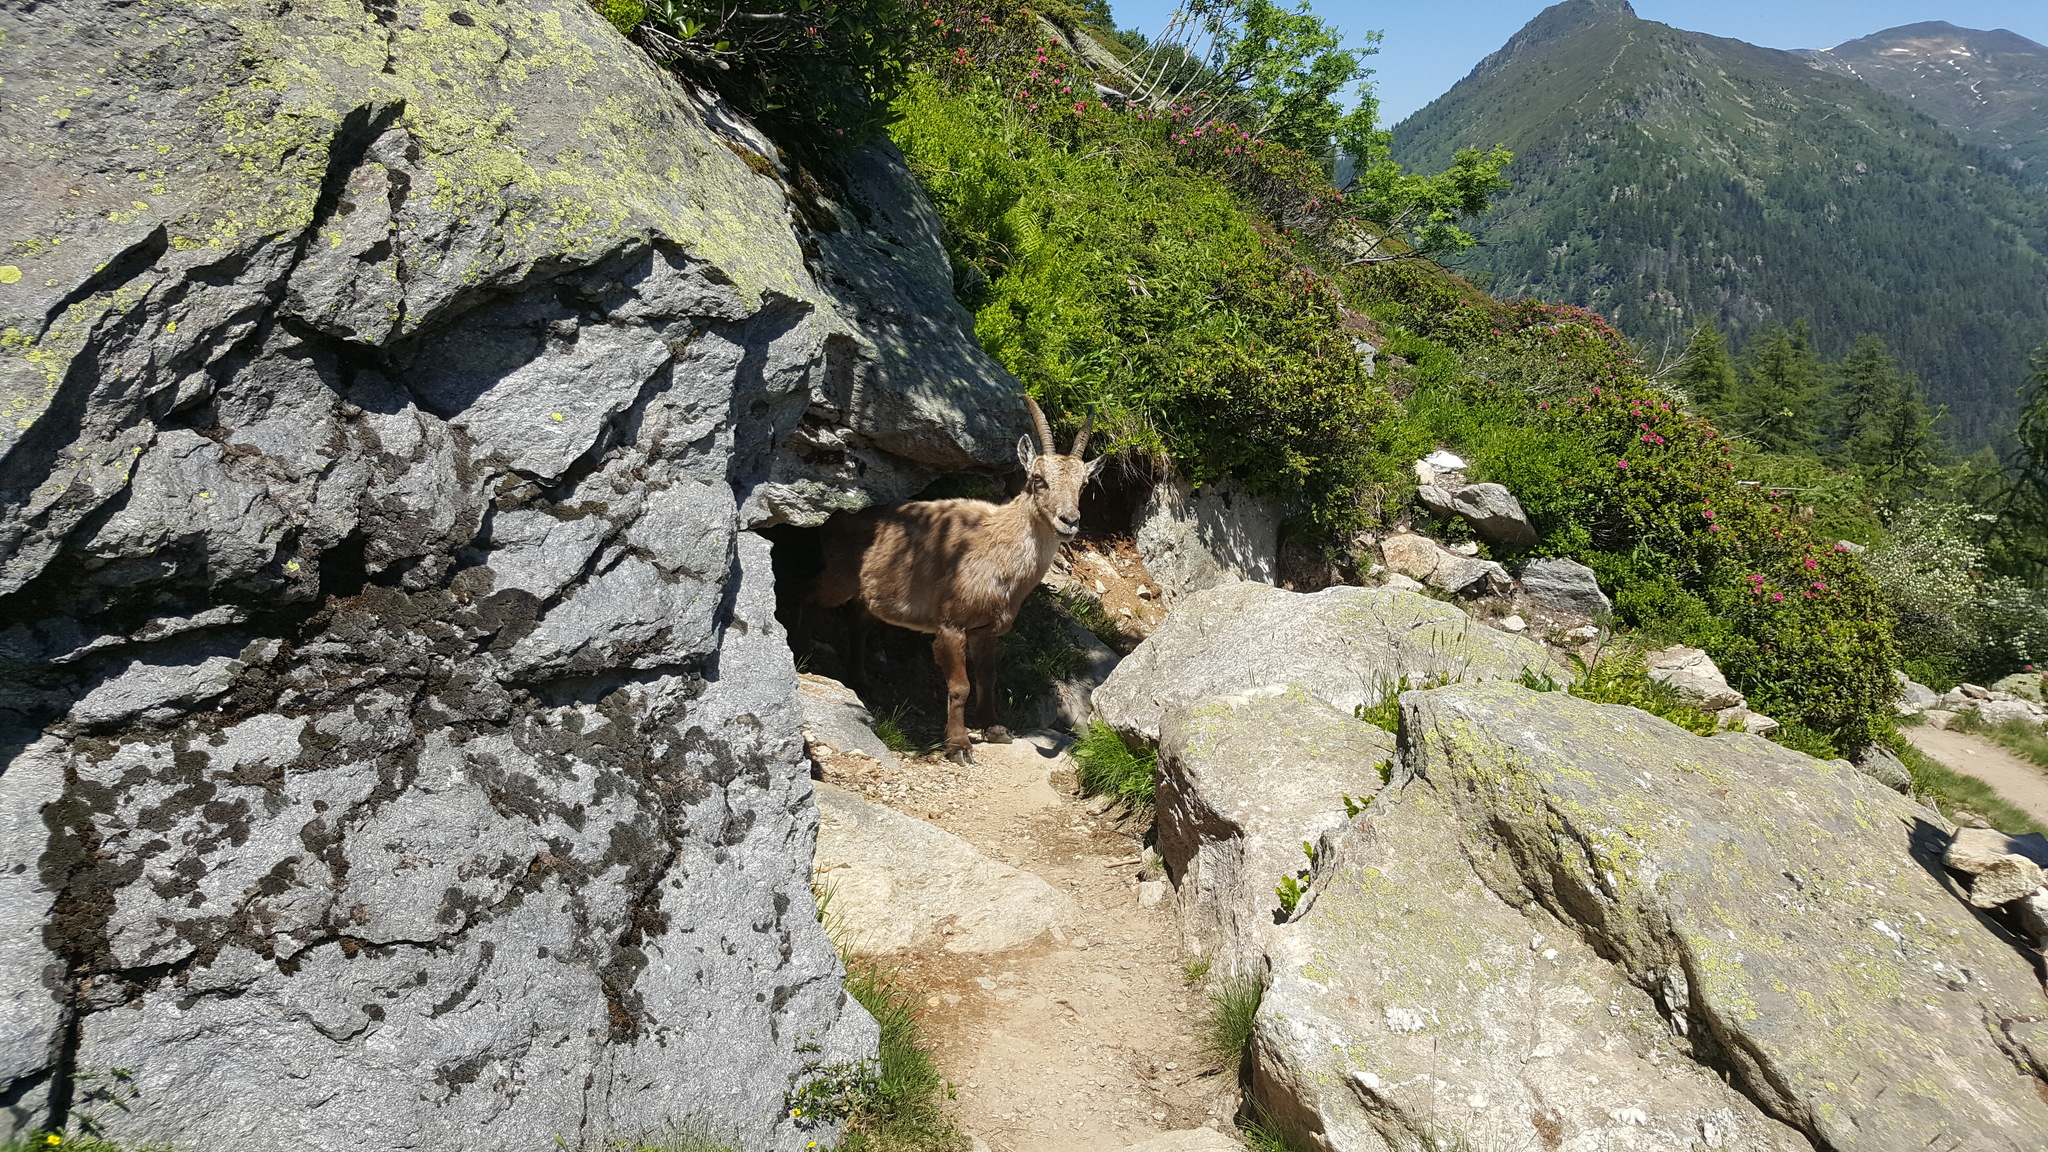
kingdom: Animalia
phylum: Chordata
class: Mammalia
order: Artiodactyla
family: Bovidae
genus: Capra
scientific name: Capra ibex
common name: Alpine ibex
